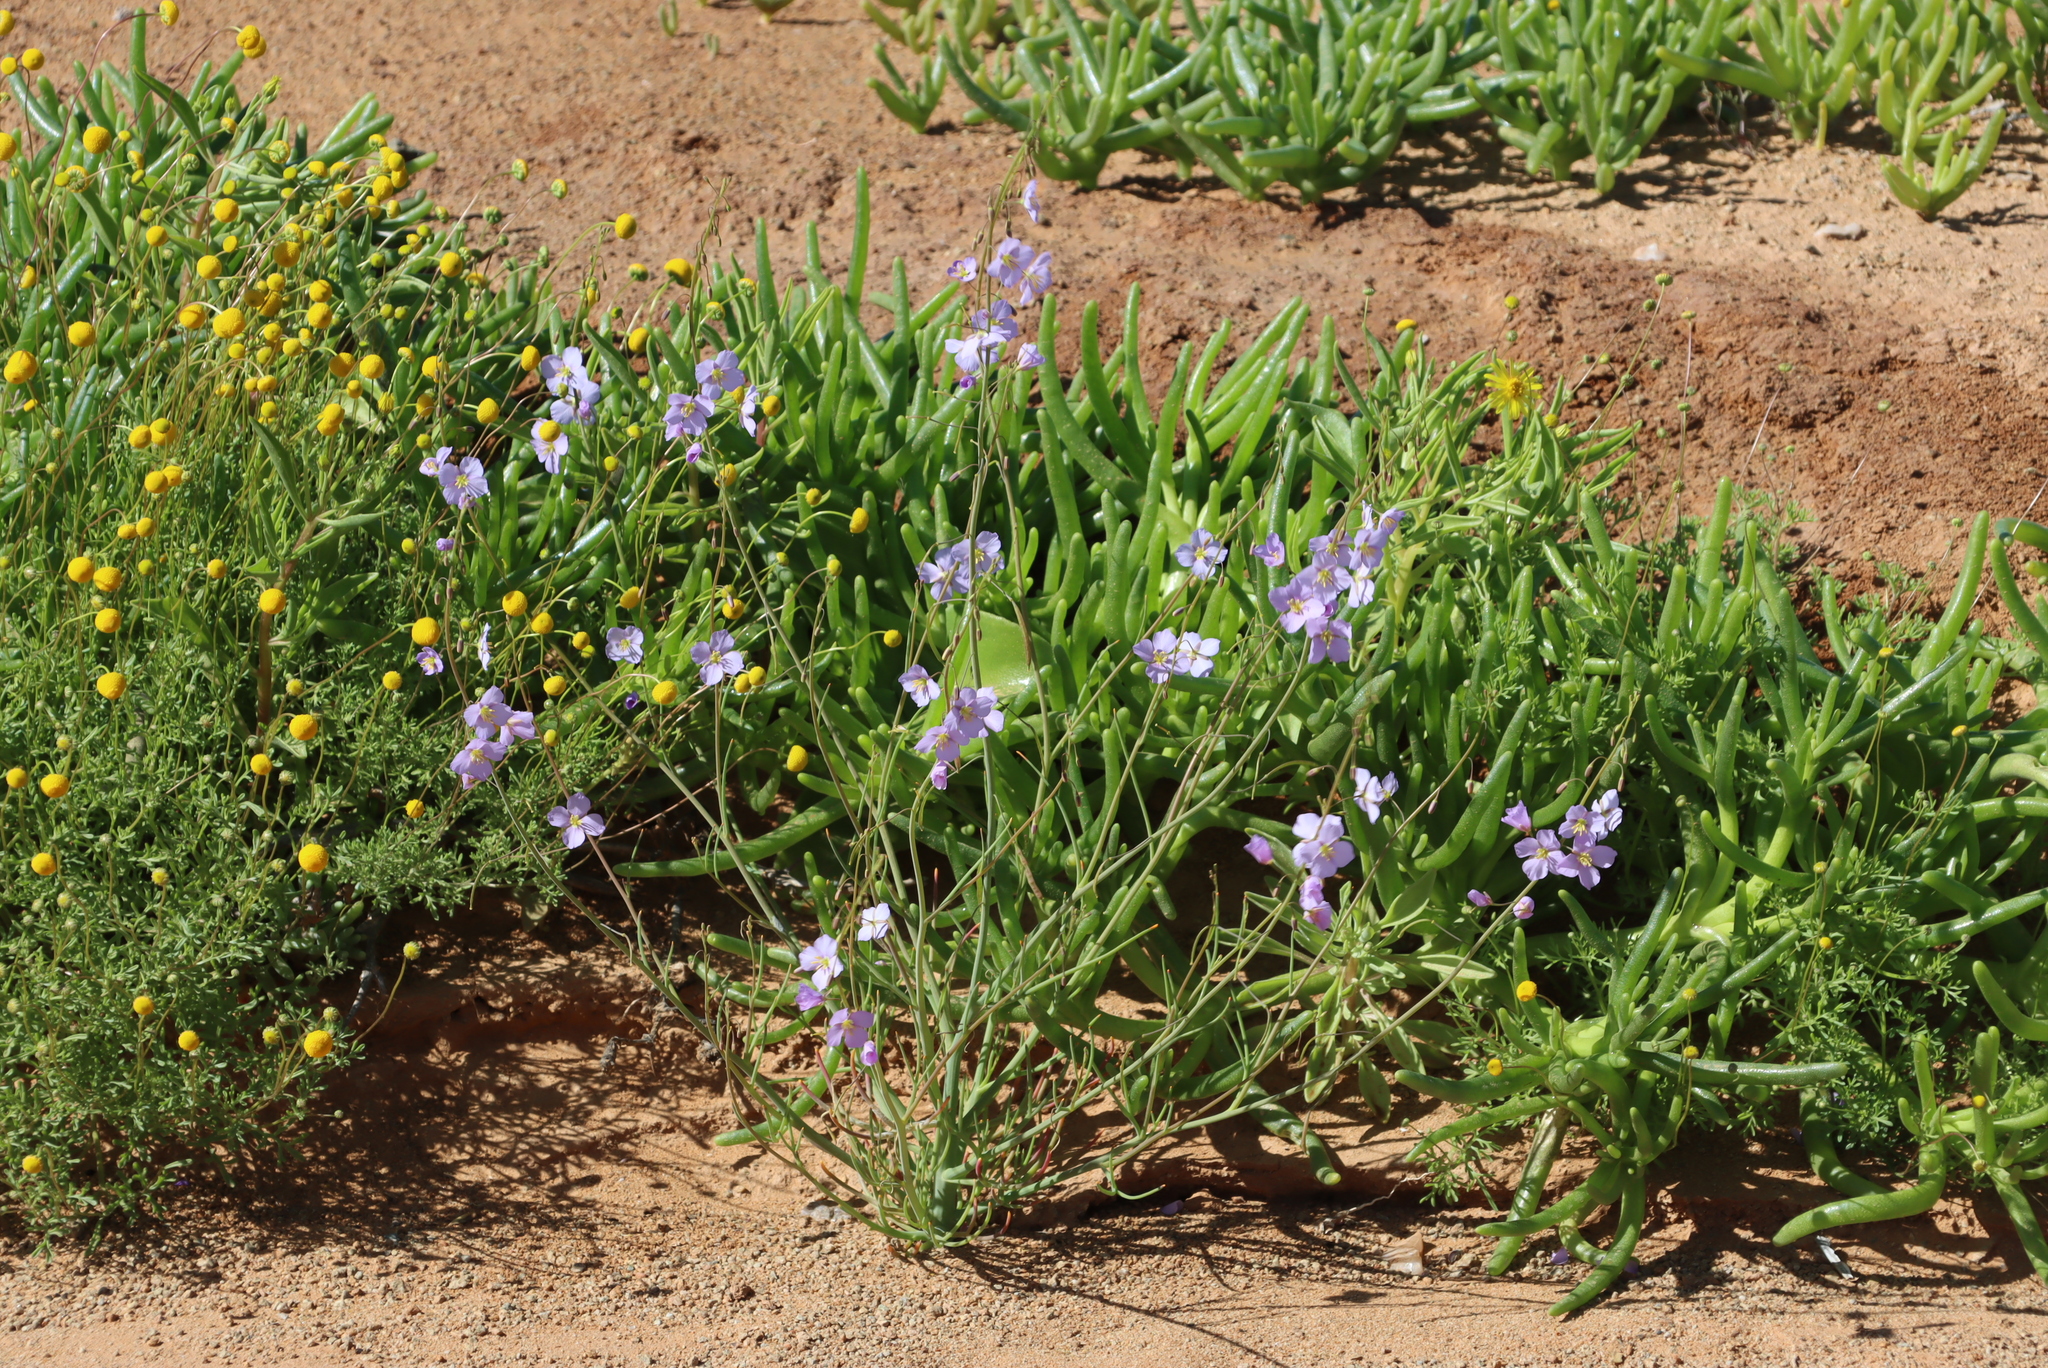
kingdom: Plantae
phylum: Tracheophyta
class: Magnoliopsida
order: Brassicales
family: Brassicaceae
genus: Heliophila
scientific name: Heliophila trifurca
